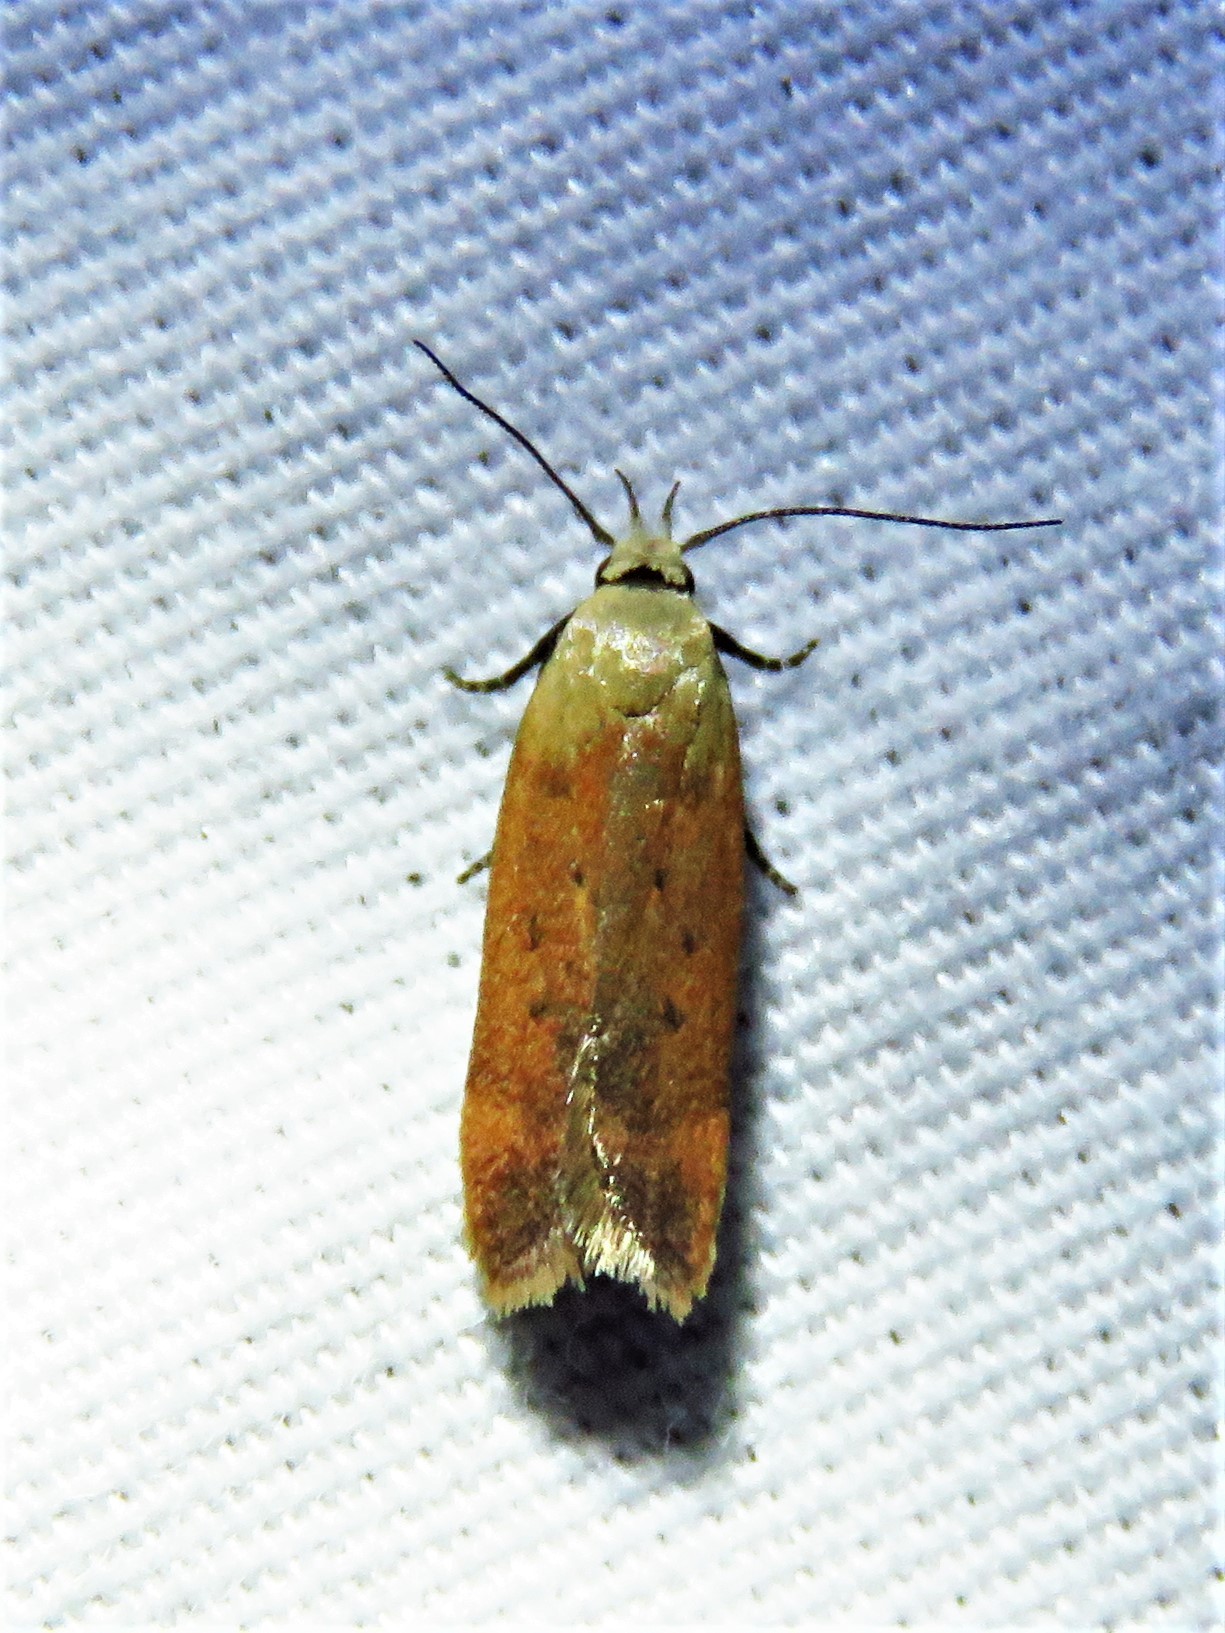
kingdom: Animalia
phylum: Arthropoda
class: Insecta
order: Lepidoptera
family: Gelechiidae
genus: Anacampsis
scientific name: Anacampsis fullonella
